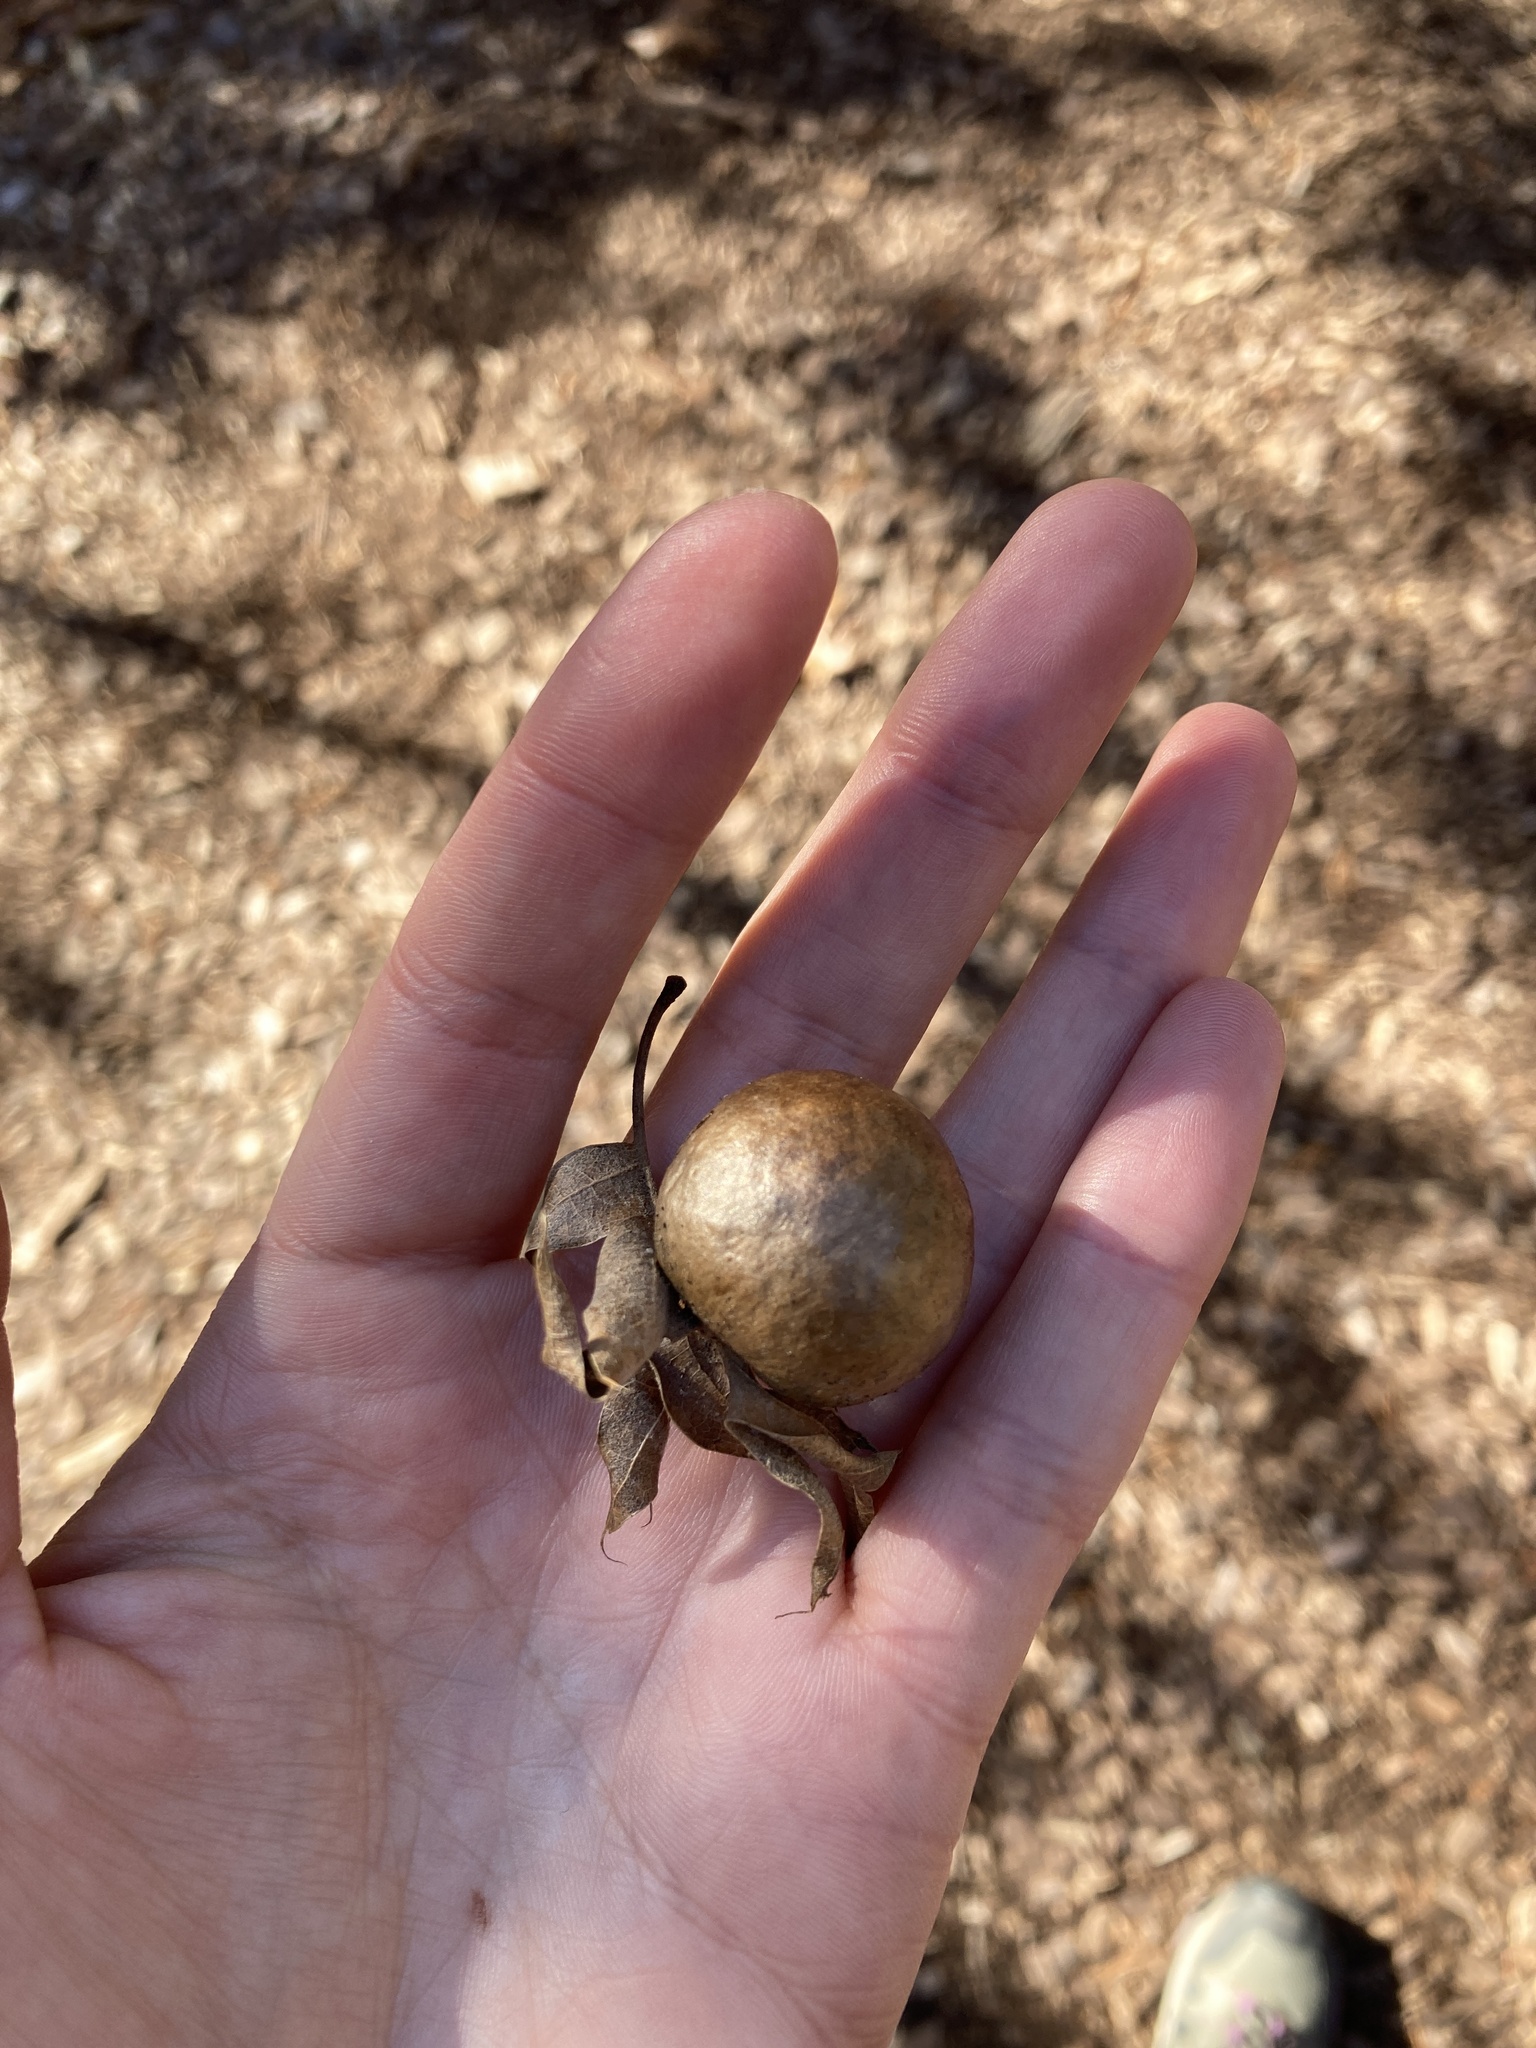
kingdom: Animalia
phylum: Arthropoda
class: Insecta
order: Hymenoptera
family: Cynipidae
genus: Amphibolips
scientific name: Amphibolips
